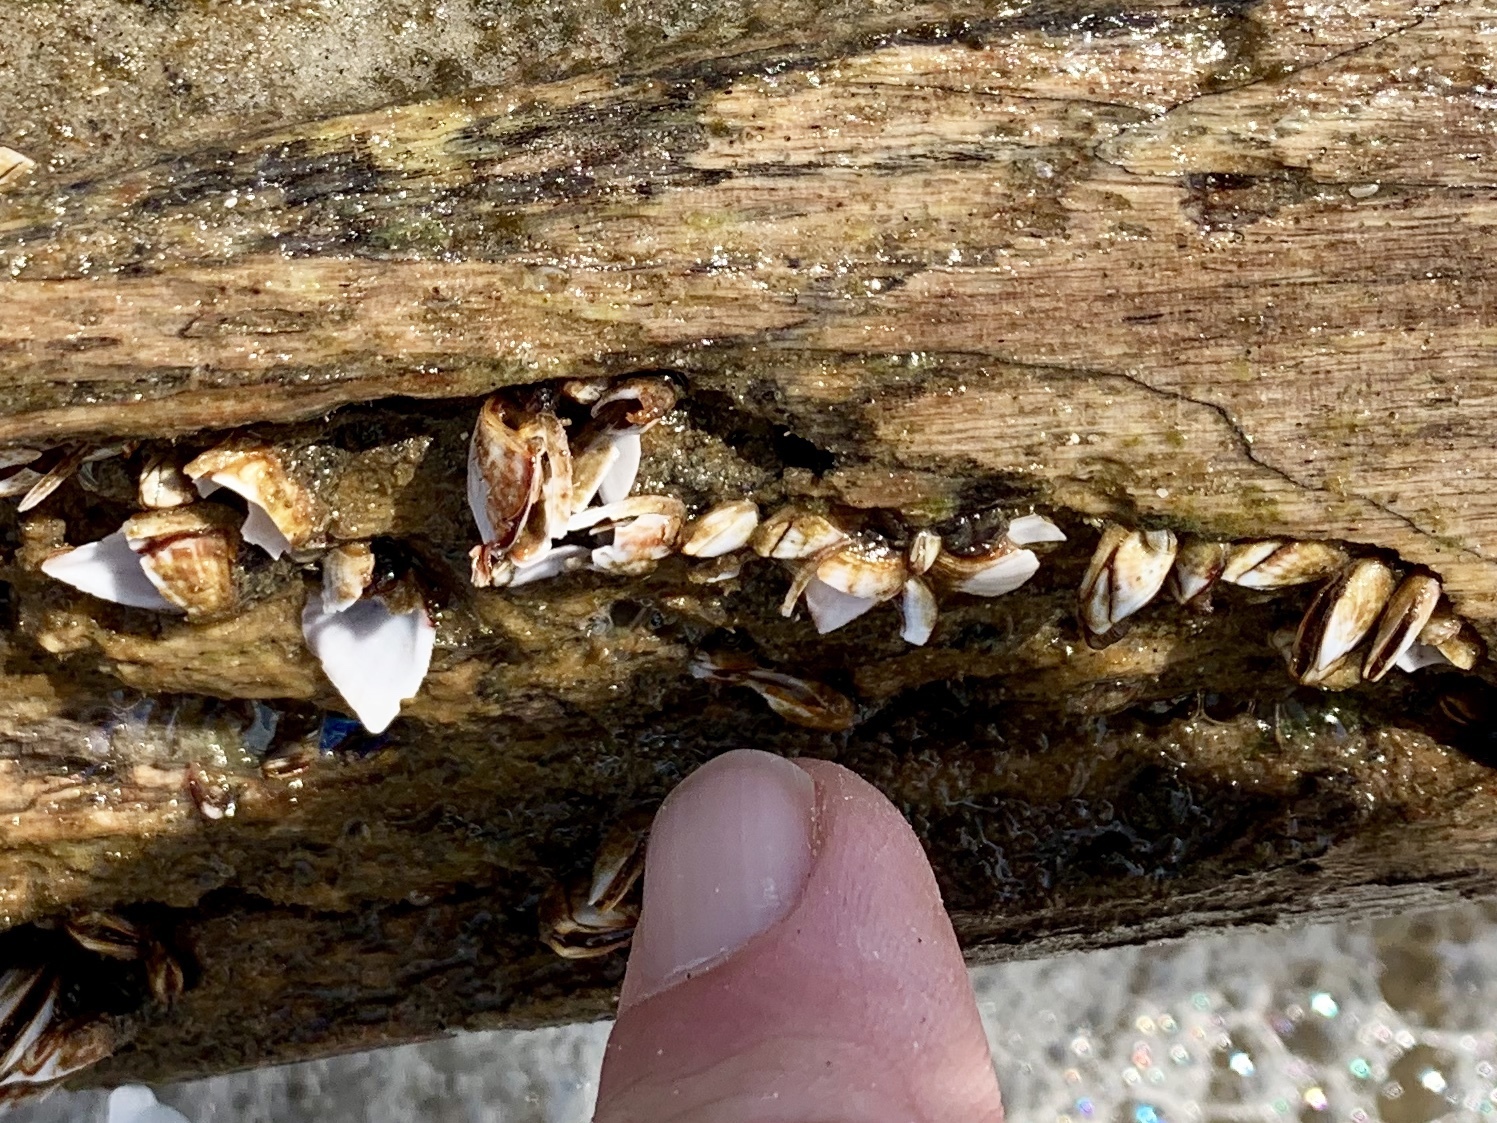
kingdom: Animalia
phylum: Arthropoda
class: Maxillopoda
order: Pedunculata
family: Lepadidae
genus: Lepas
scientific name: Lepas anatifera
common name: Common goose barnacle
